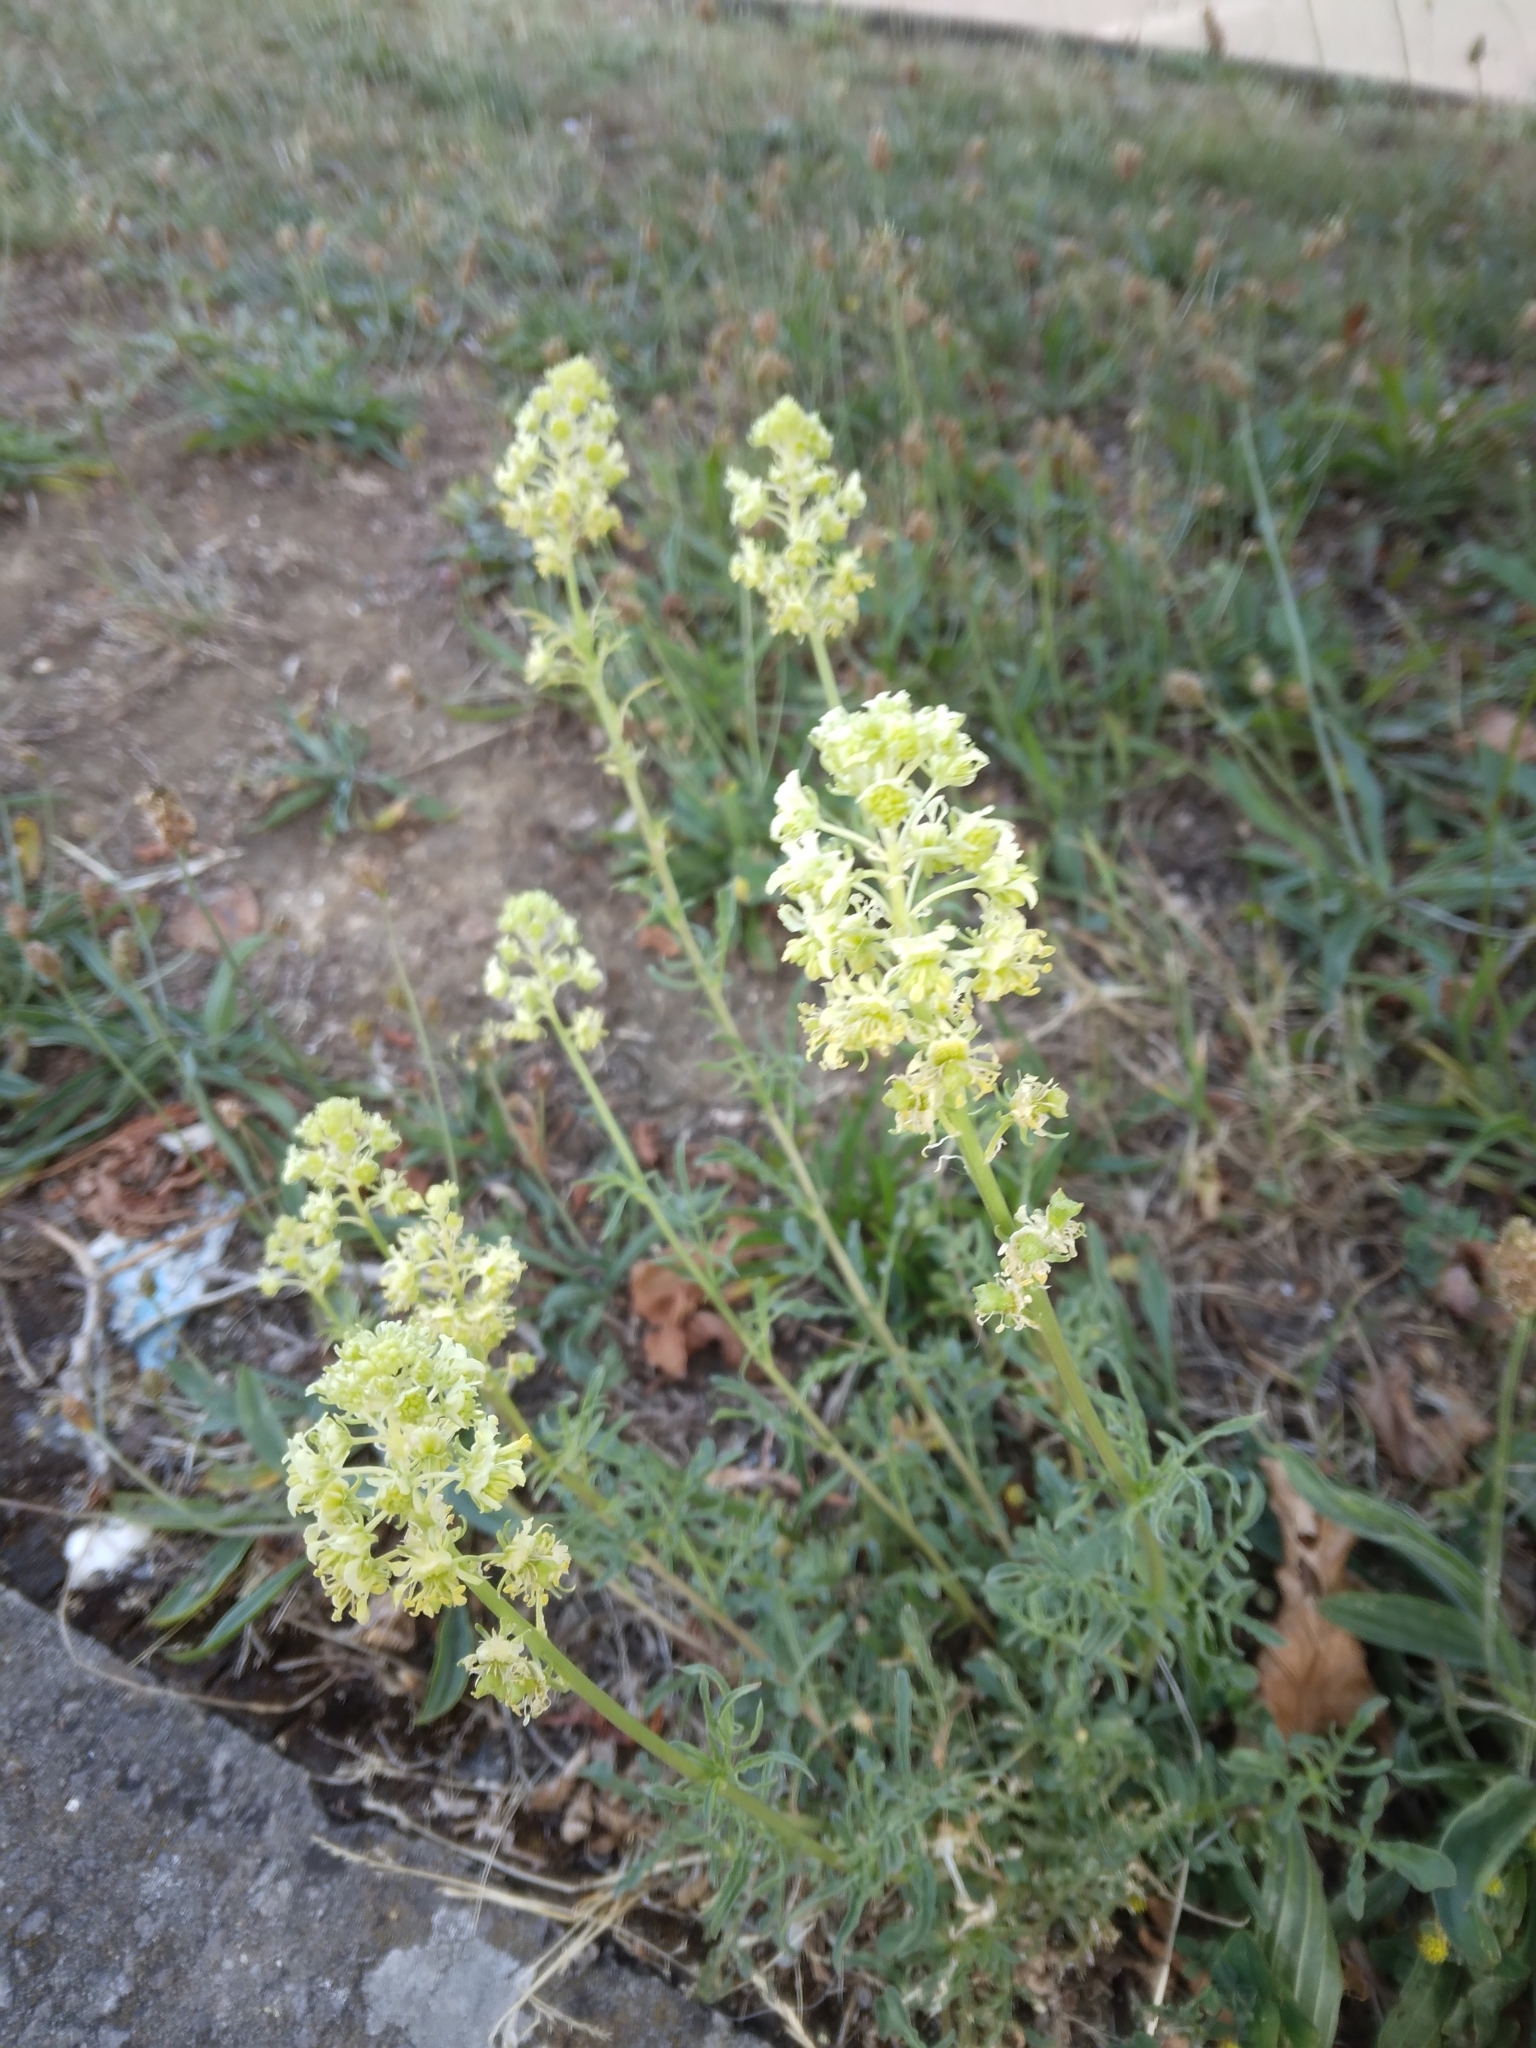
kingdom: Plantae
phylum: Tracheophyta
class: Magnoliopsida
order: Brassicales
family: Resedaceae
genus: Reseda
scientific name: Reseda lutea
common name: Wild mignonette
